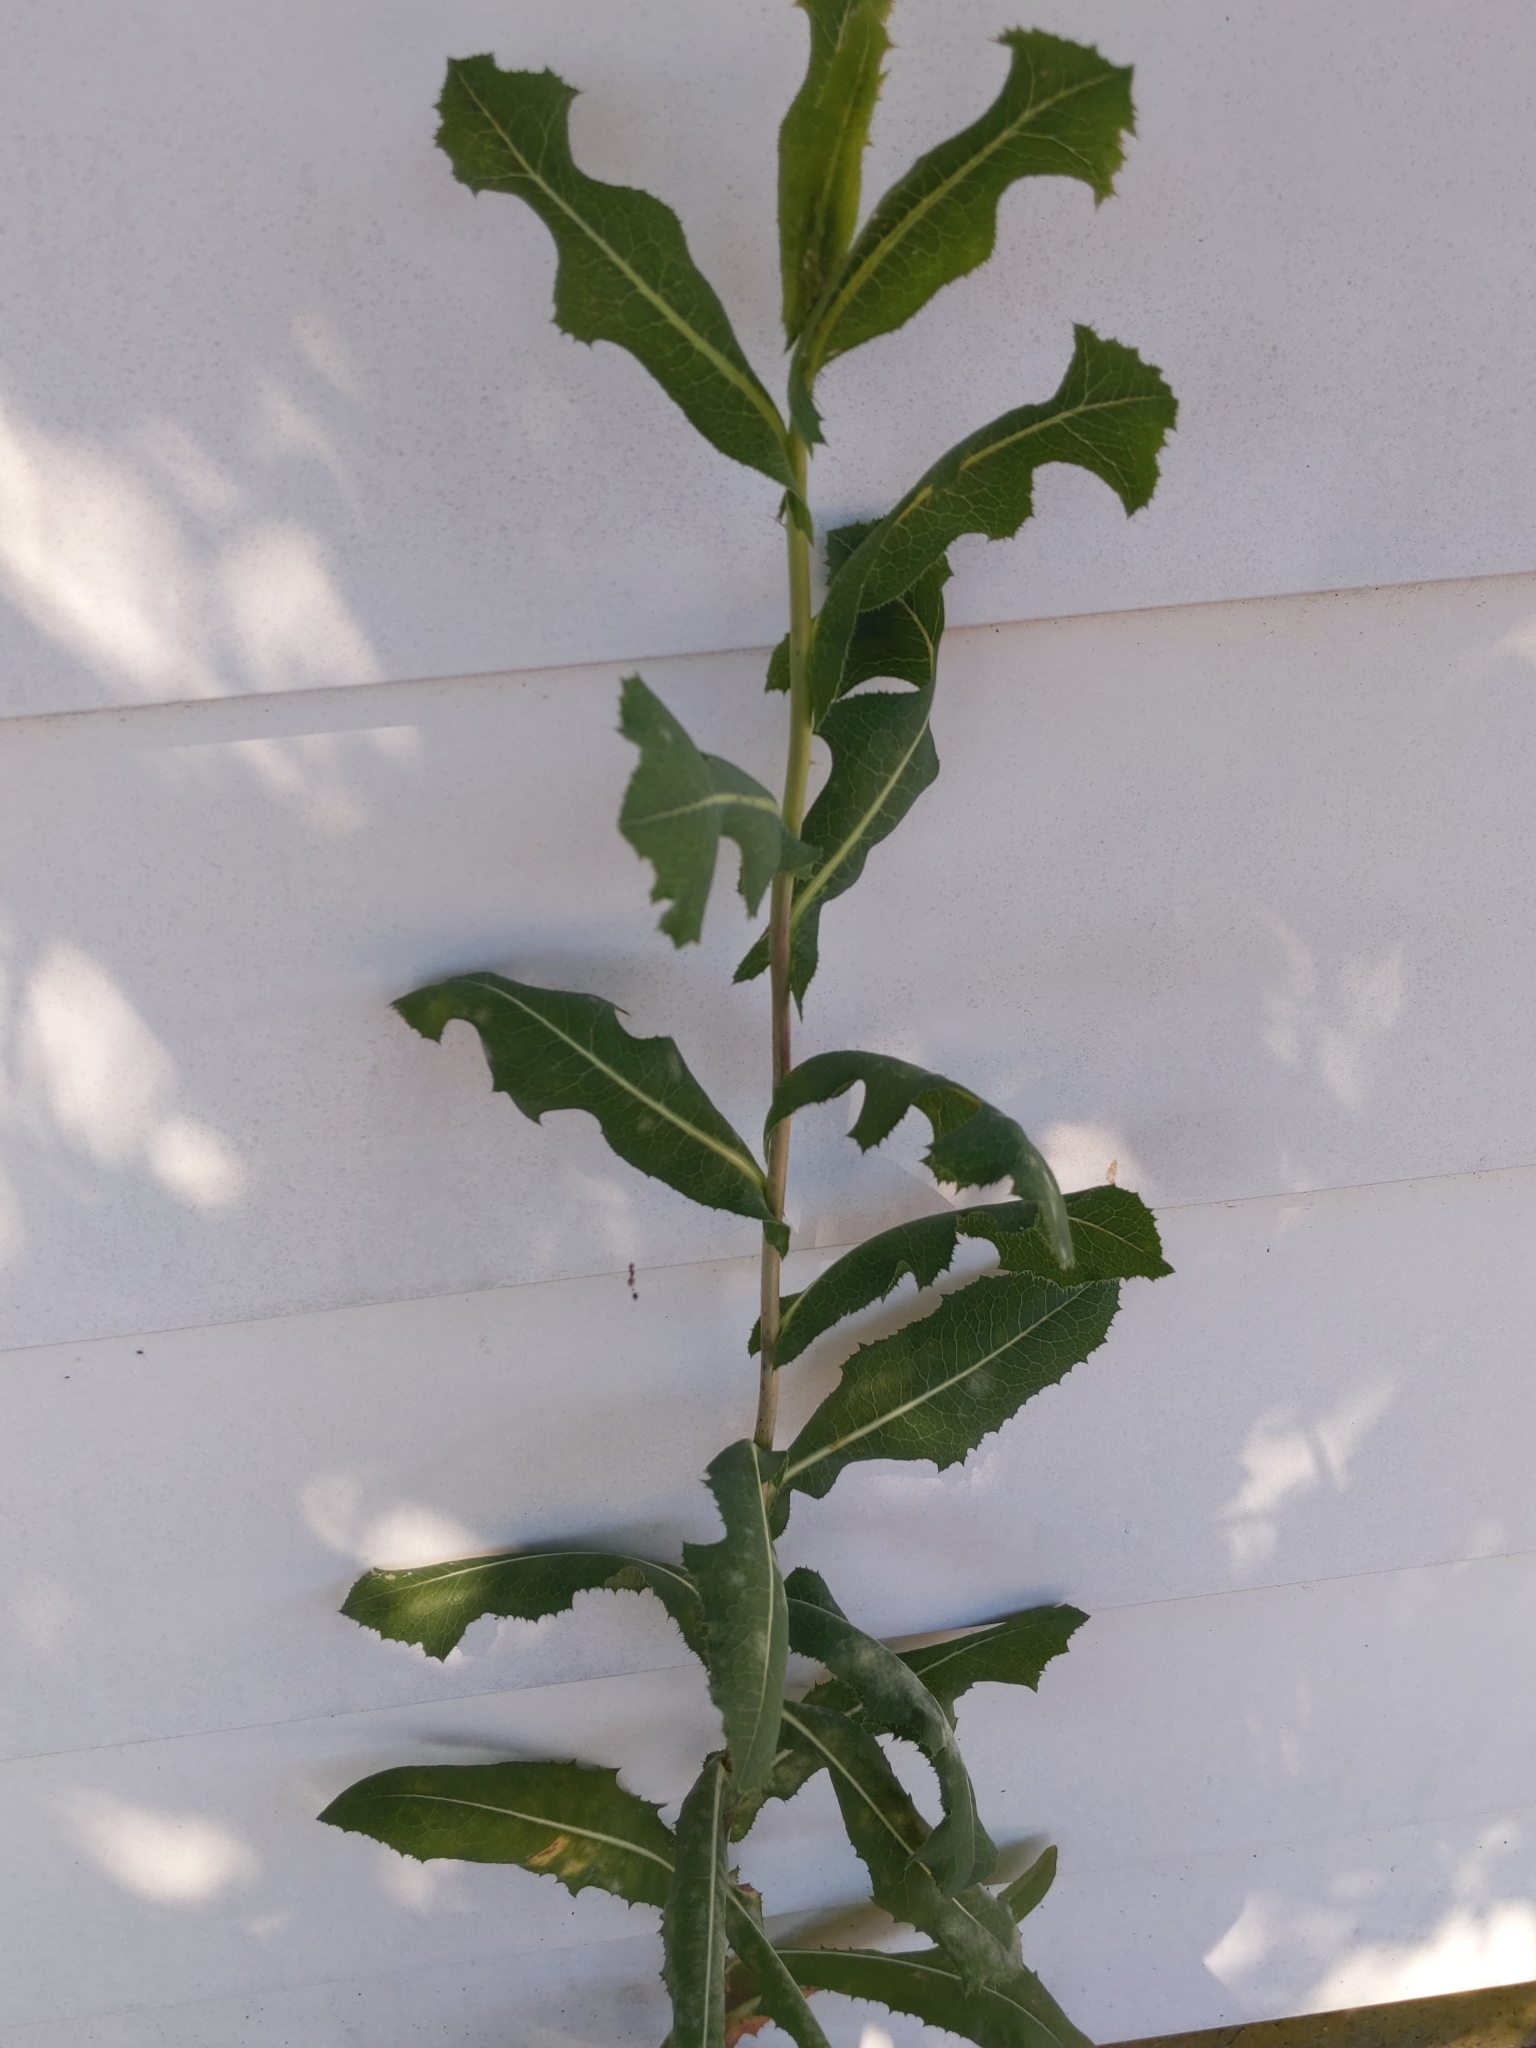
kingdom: Plantae
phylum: Tracheophyta
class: Magnoliopsida
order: Asterales
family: Asteraceae
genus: Lactuca
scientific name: Lactuca serriola
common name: Prickly lettuce
